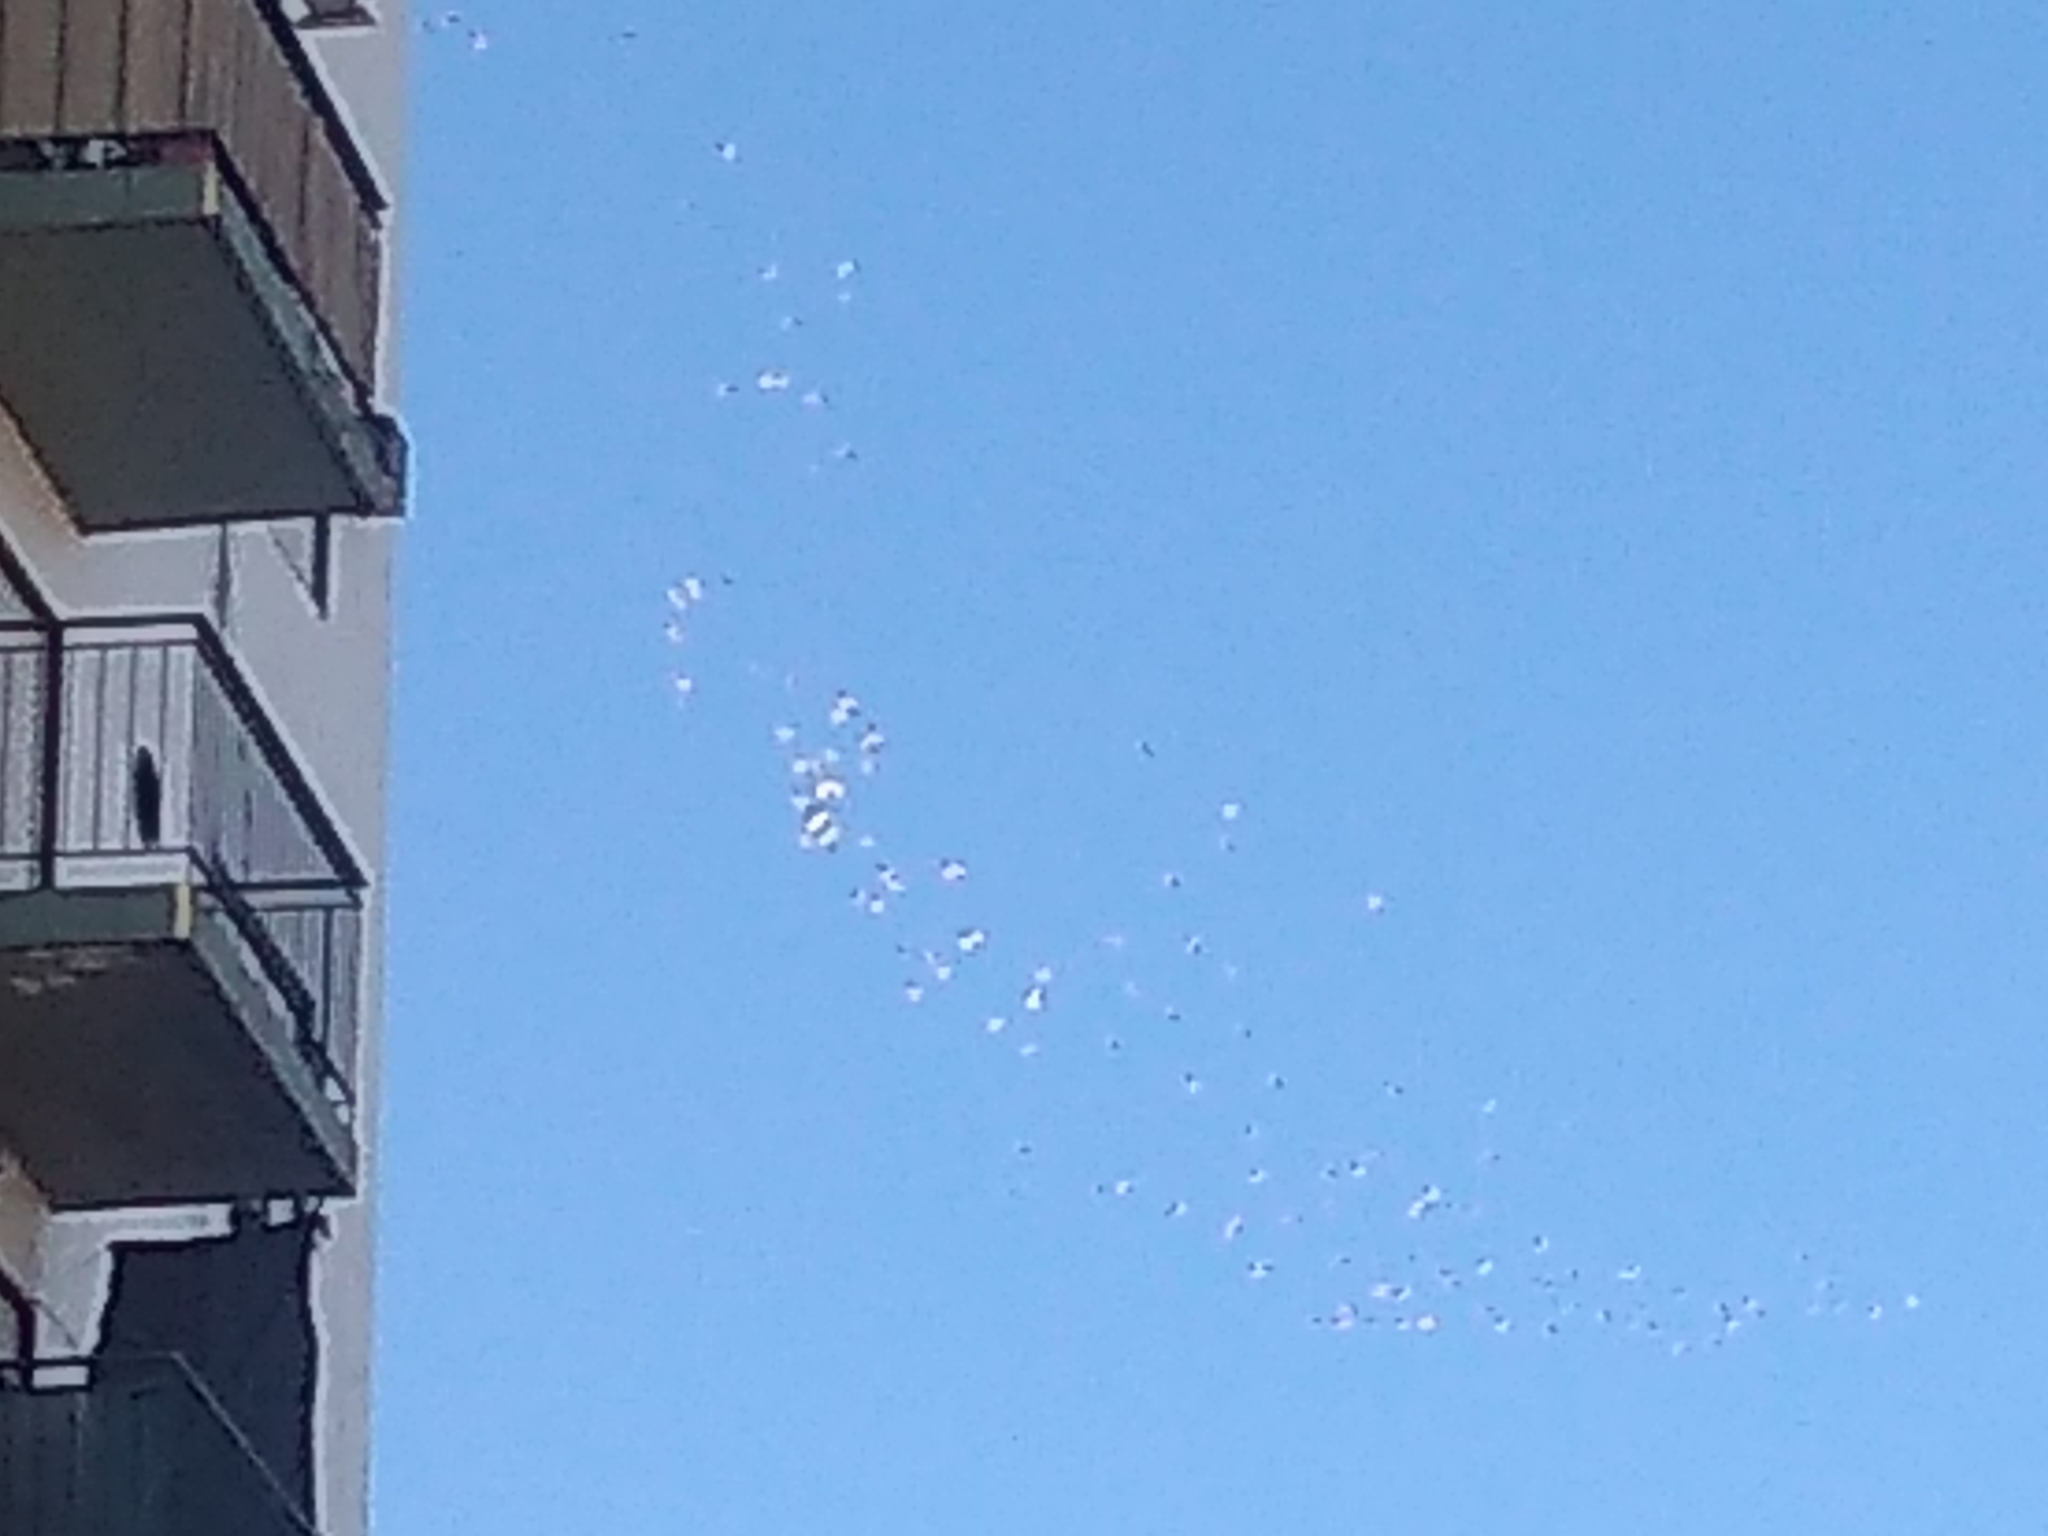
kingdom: Animalia
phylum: Chordata
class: Aves
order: Charadriiformes
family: Laridae
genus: Larus
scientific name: Larus dominicanus
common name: Kelp gull
